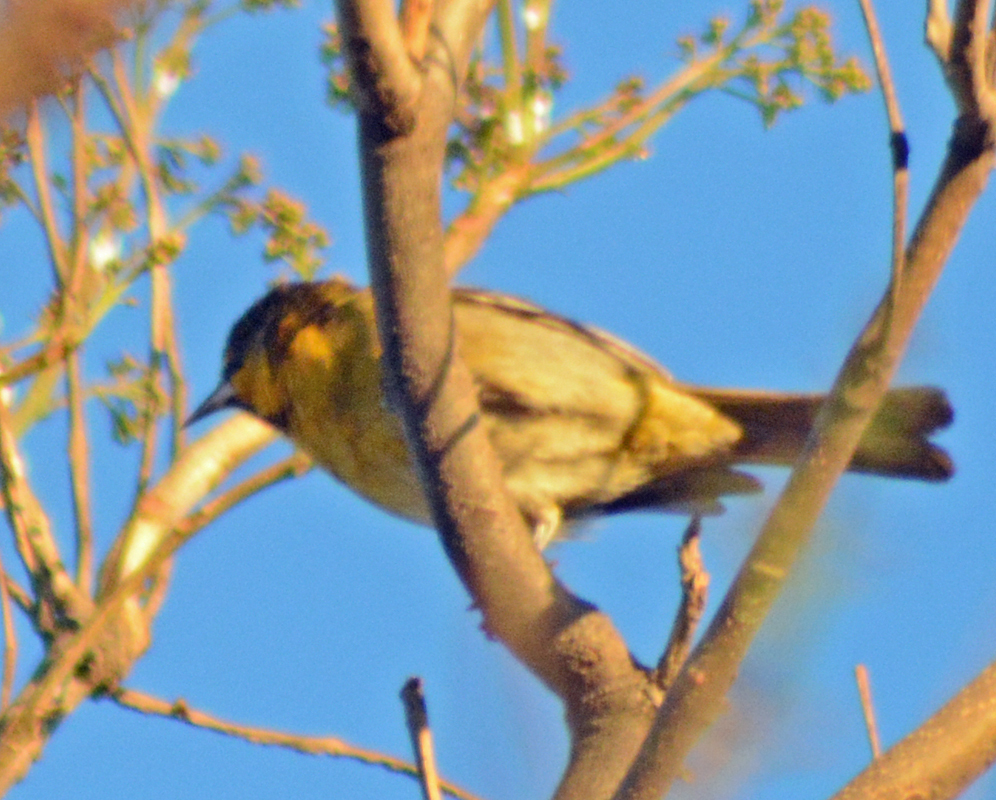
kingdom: Animalia
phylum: Chordata
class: Aves
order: Passeriformes
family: Icteridae
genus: Icterus
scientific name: Icterus abeillei
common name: Black-backed oriole
